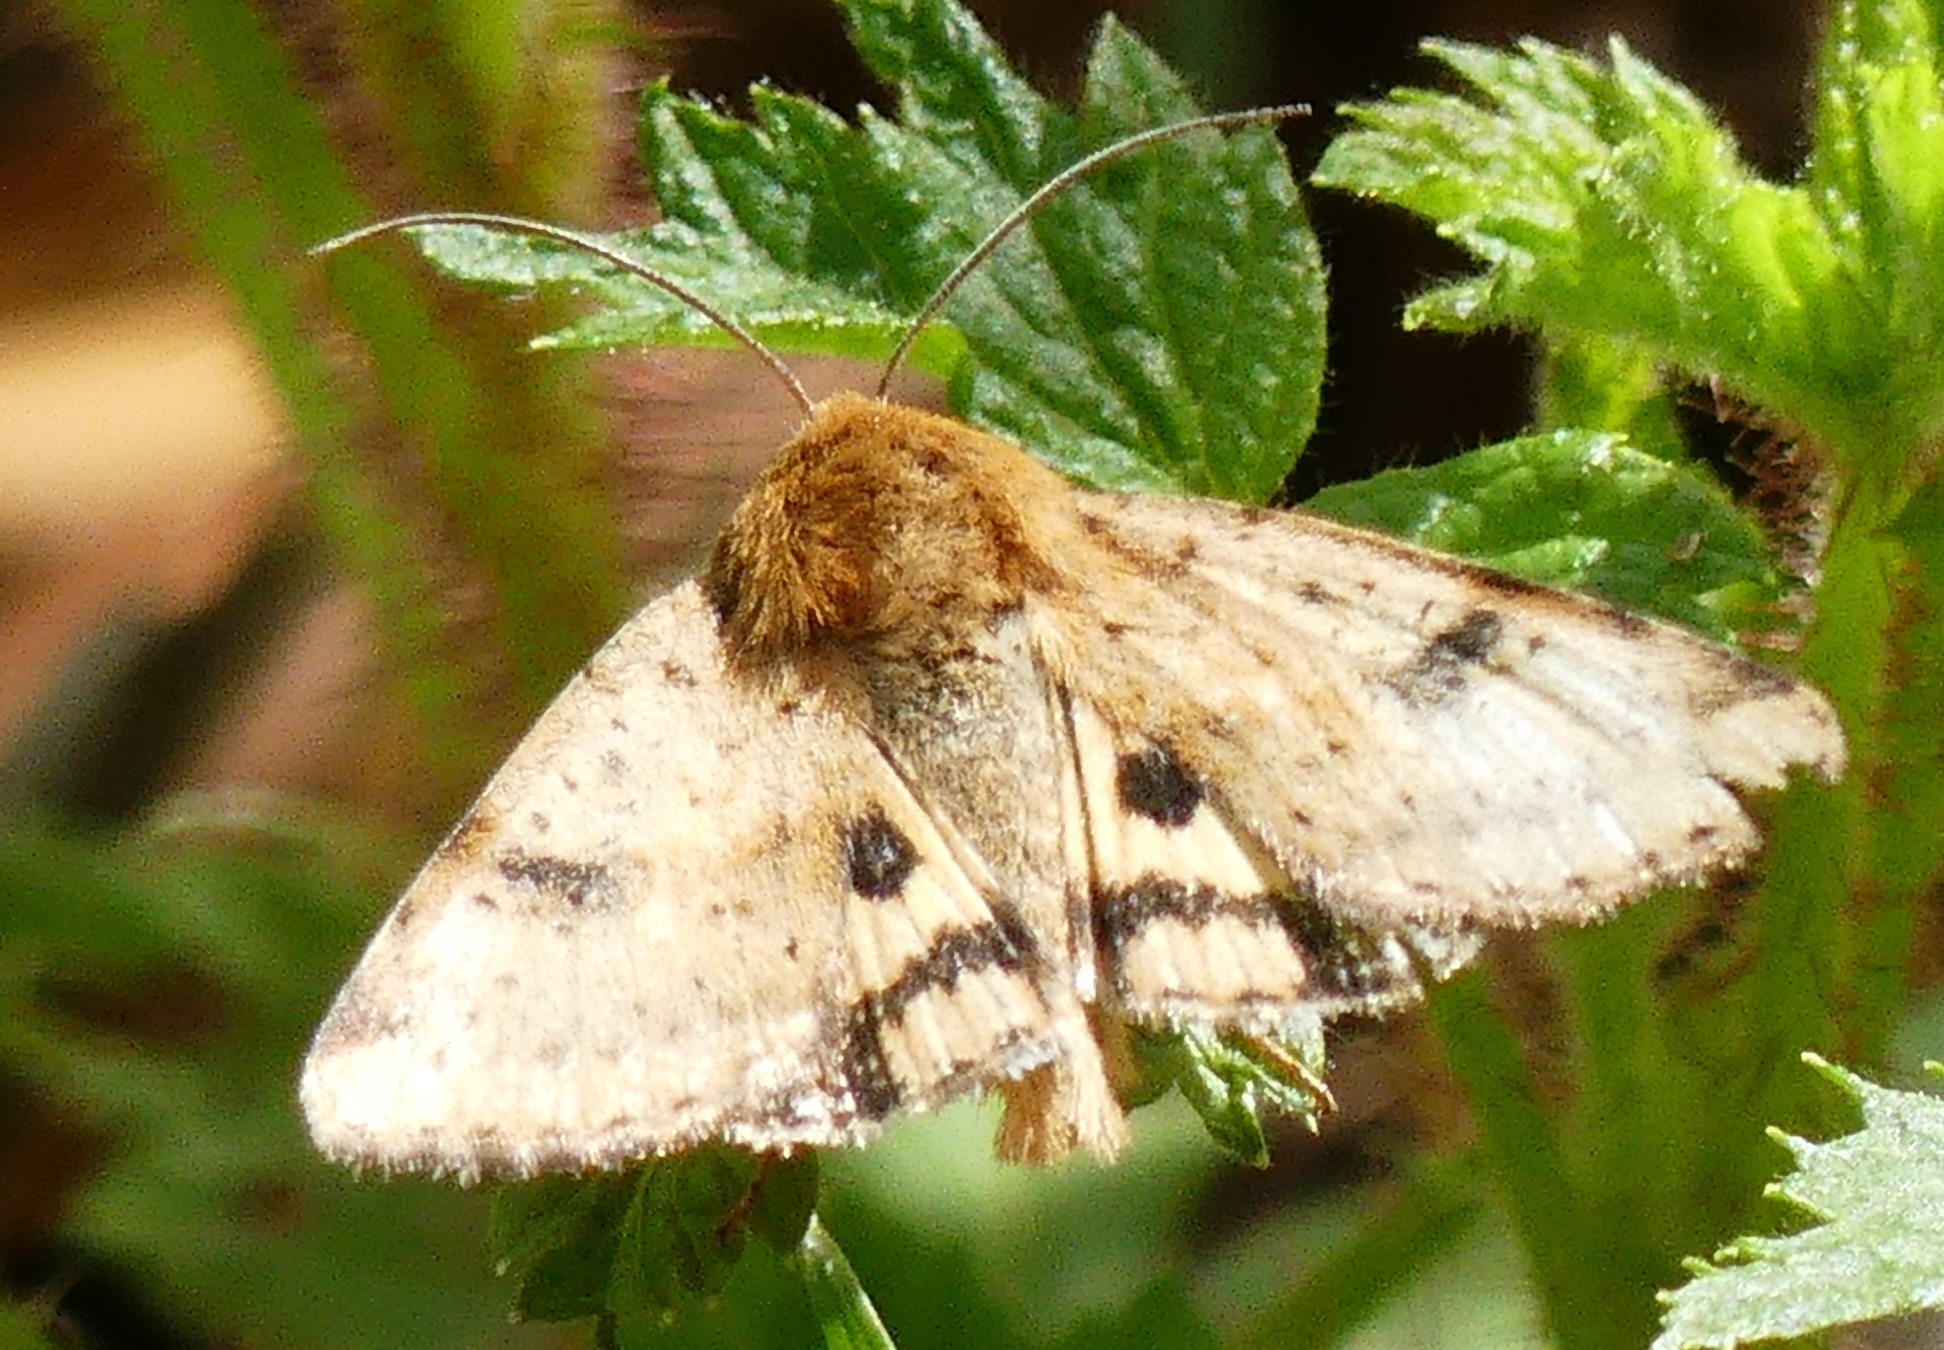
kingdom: Animalia
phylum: Arthropoda
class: Insecta
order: Lepidoptera
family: Noctuidae
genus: Heliothis
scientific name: Heliothis phloxiphaga
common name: Darker spotted straw moth
